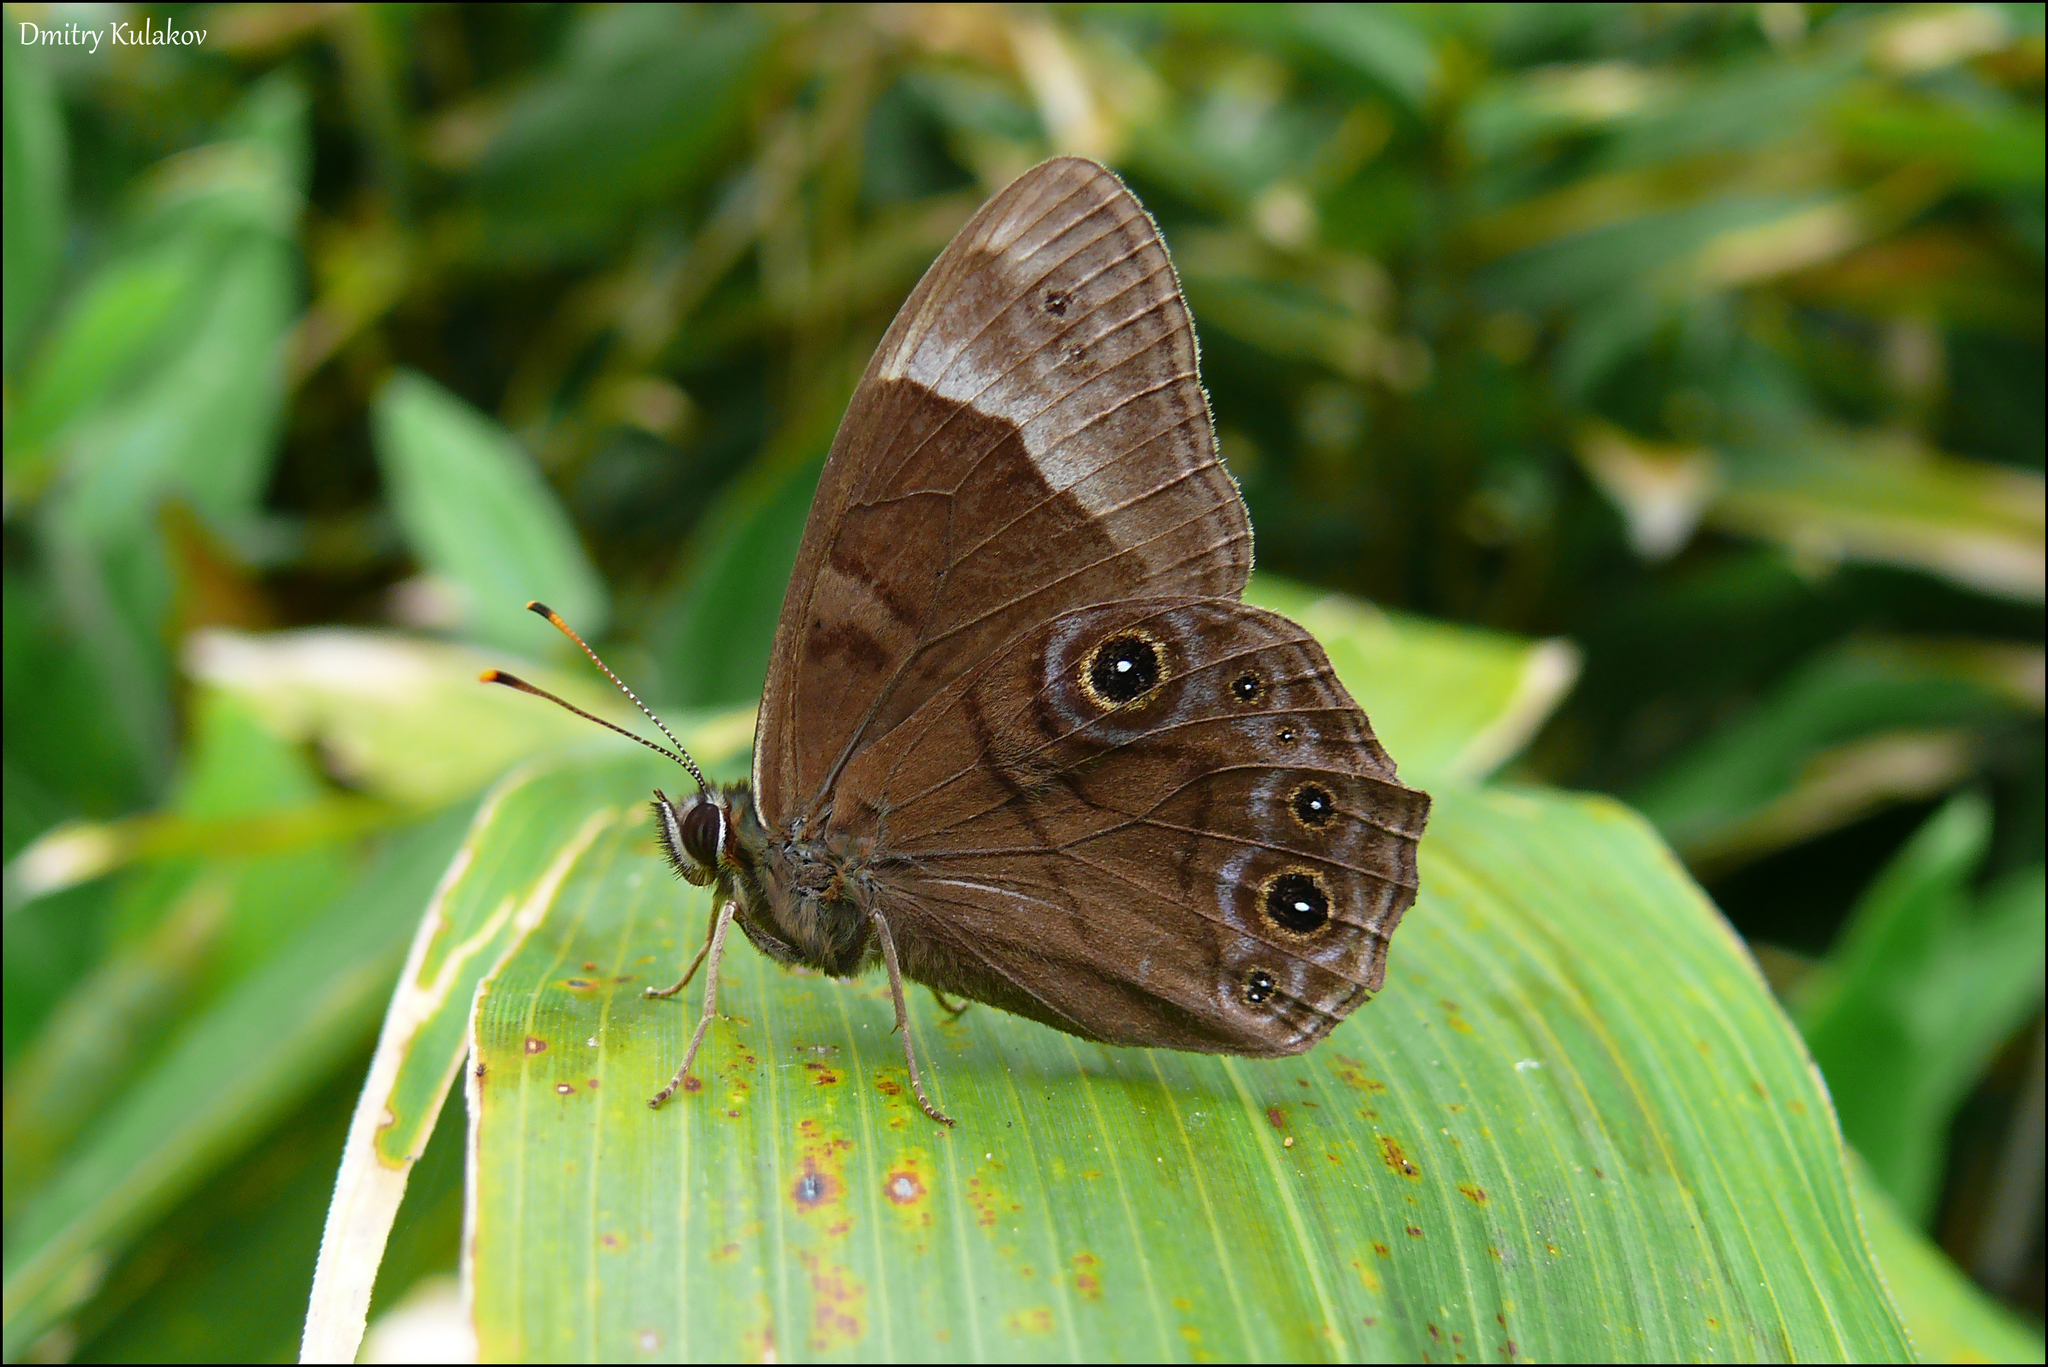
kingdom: Animalia
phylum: Arthropoda
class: Insecta
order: Lepidoptera
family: Nymphalidae
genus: Lethe
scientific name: Lethe diana
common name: Diana treebrown
